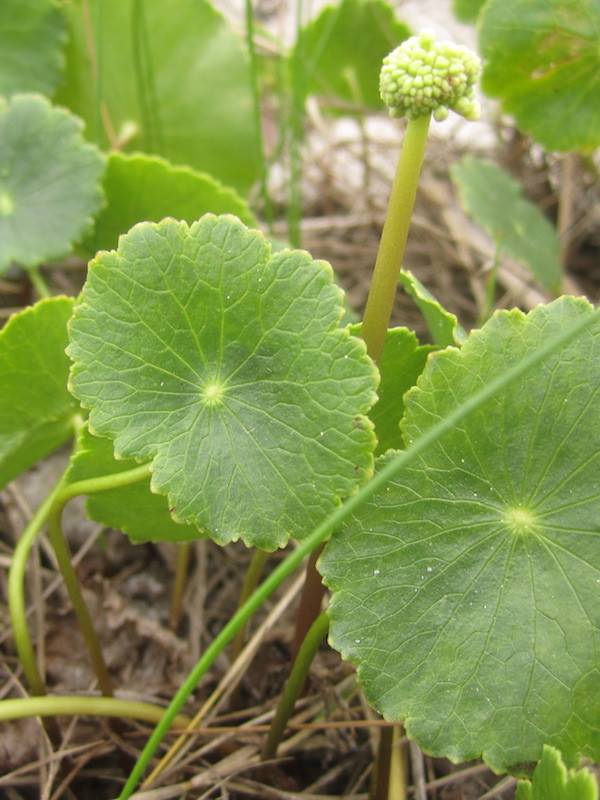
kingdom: Plantae
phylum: Tracheophyta
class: Magnoliopsida
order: Apiales
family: Araliaceae
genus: Hydrocotyle
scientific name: Hydrocotyle bonariensis
